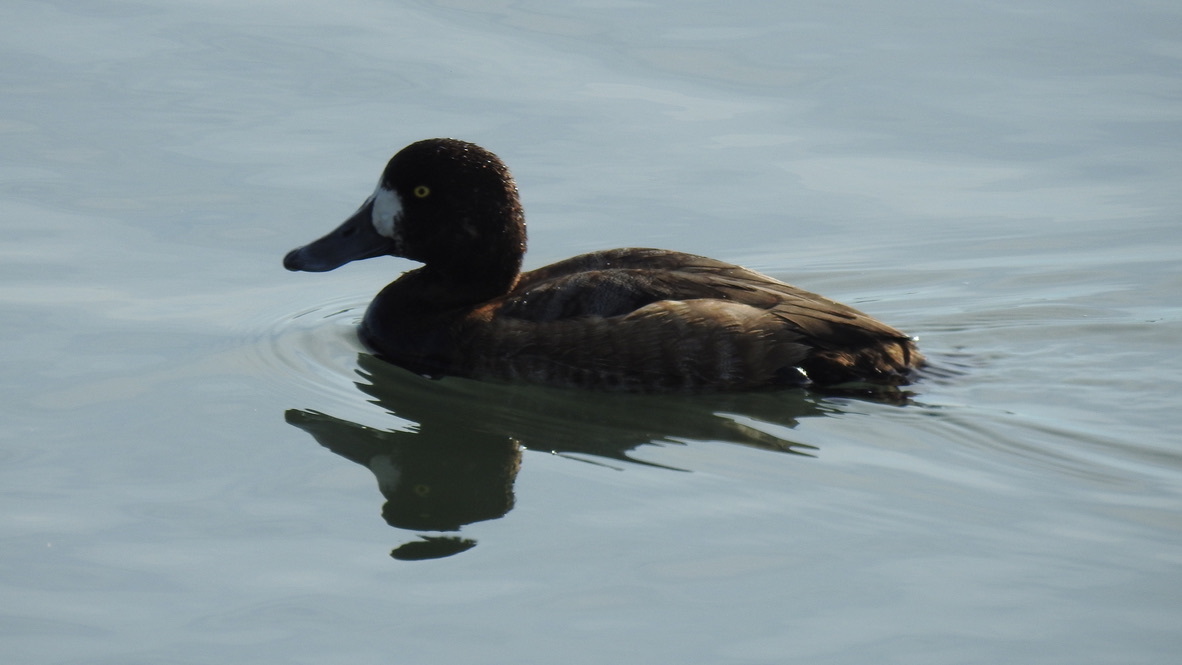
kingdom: Animalia
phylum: Chordata
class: Aves
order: Anseriformes
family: Anatidae
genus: Aythya
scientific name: Aythya marila
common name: Greater scaup
